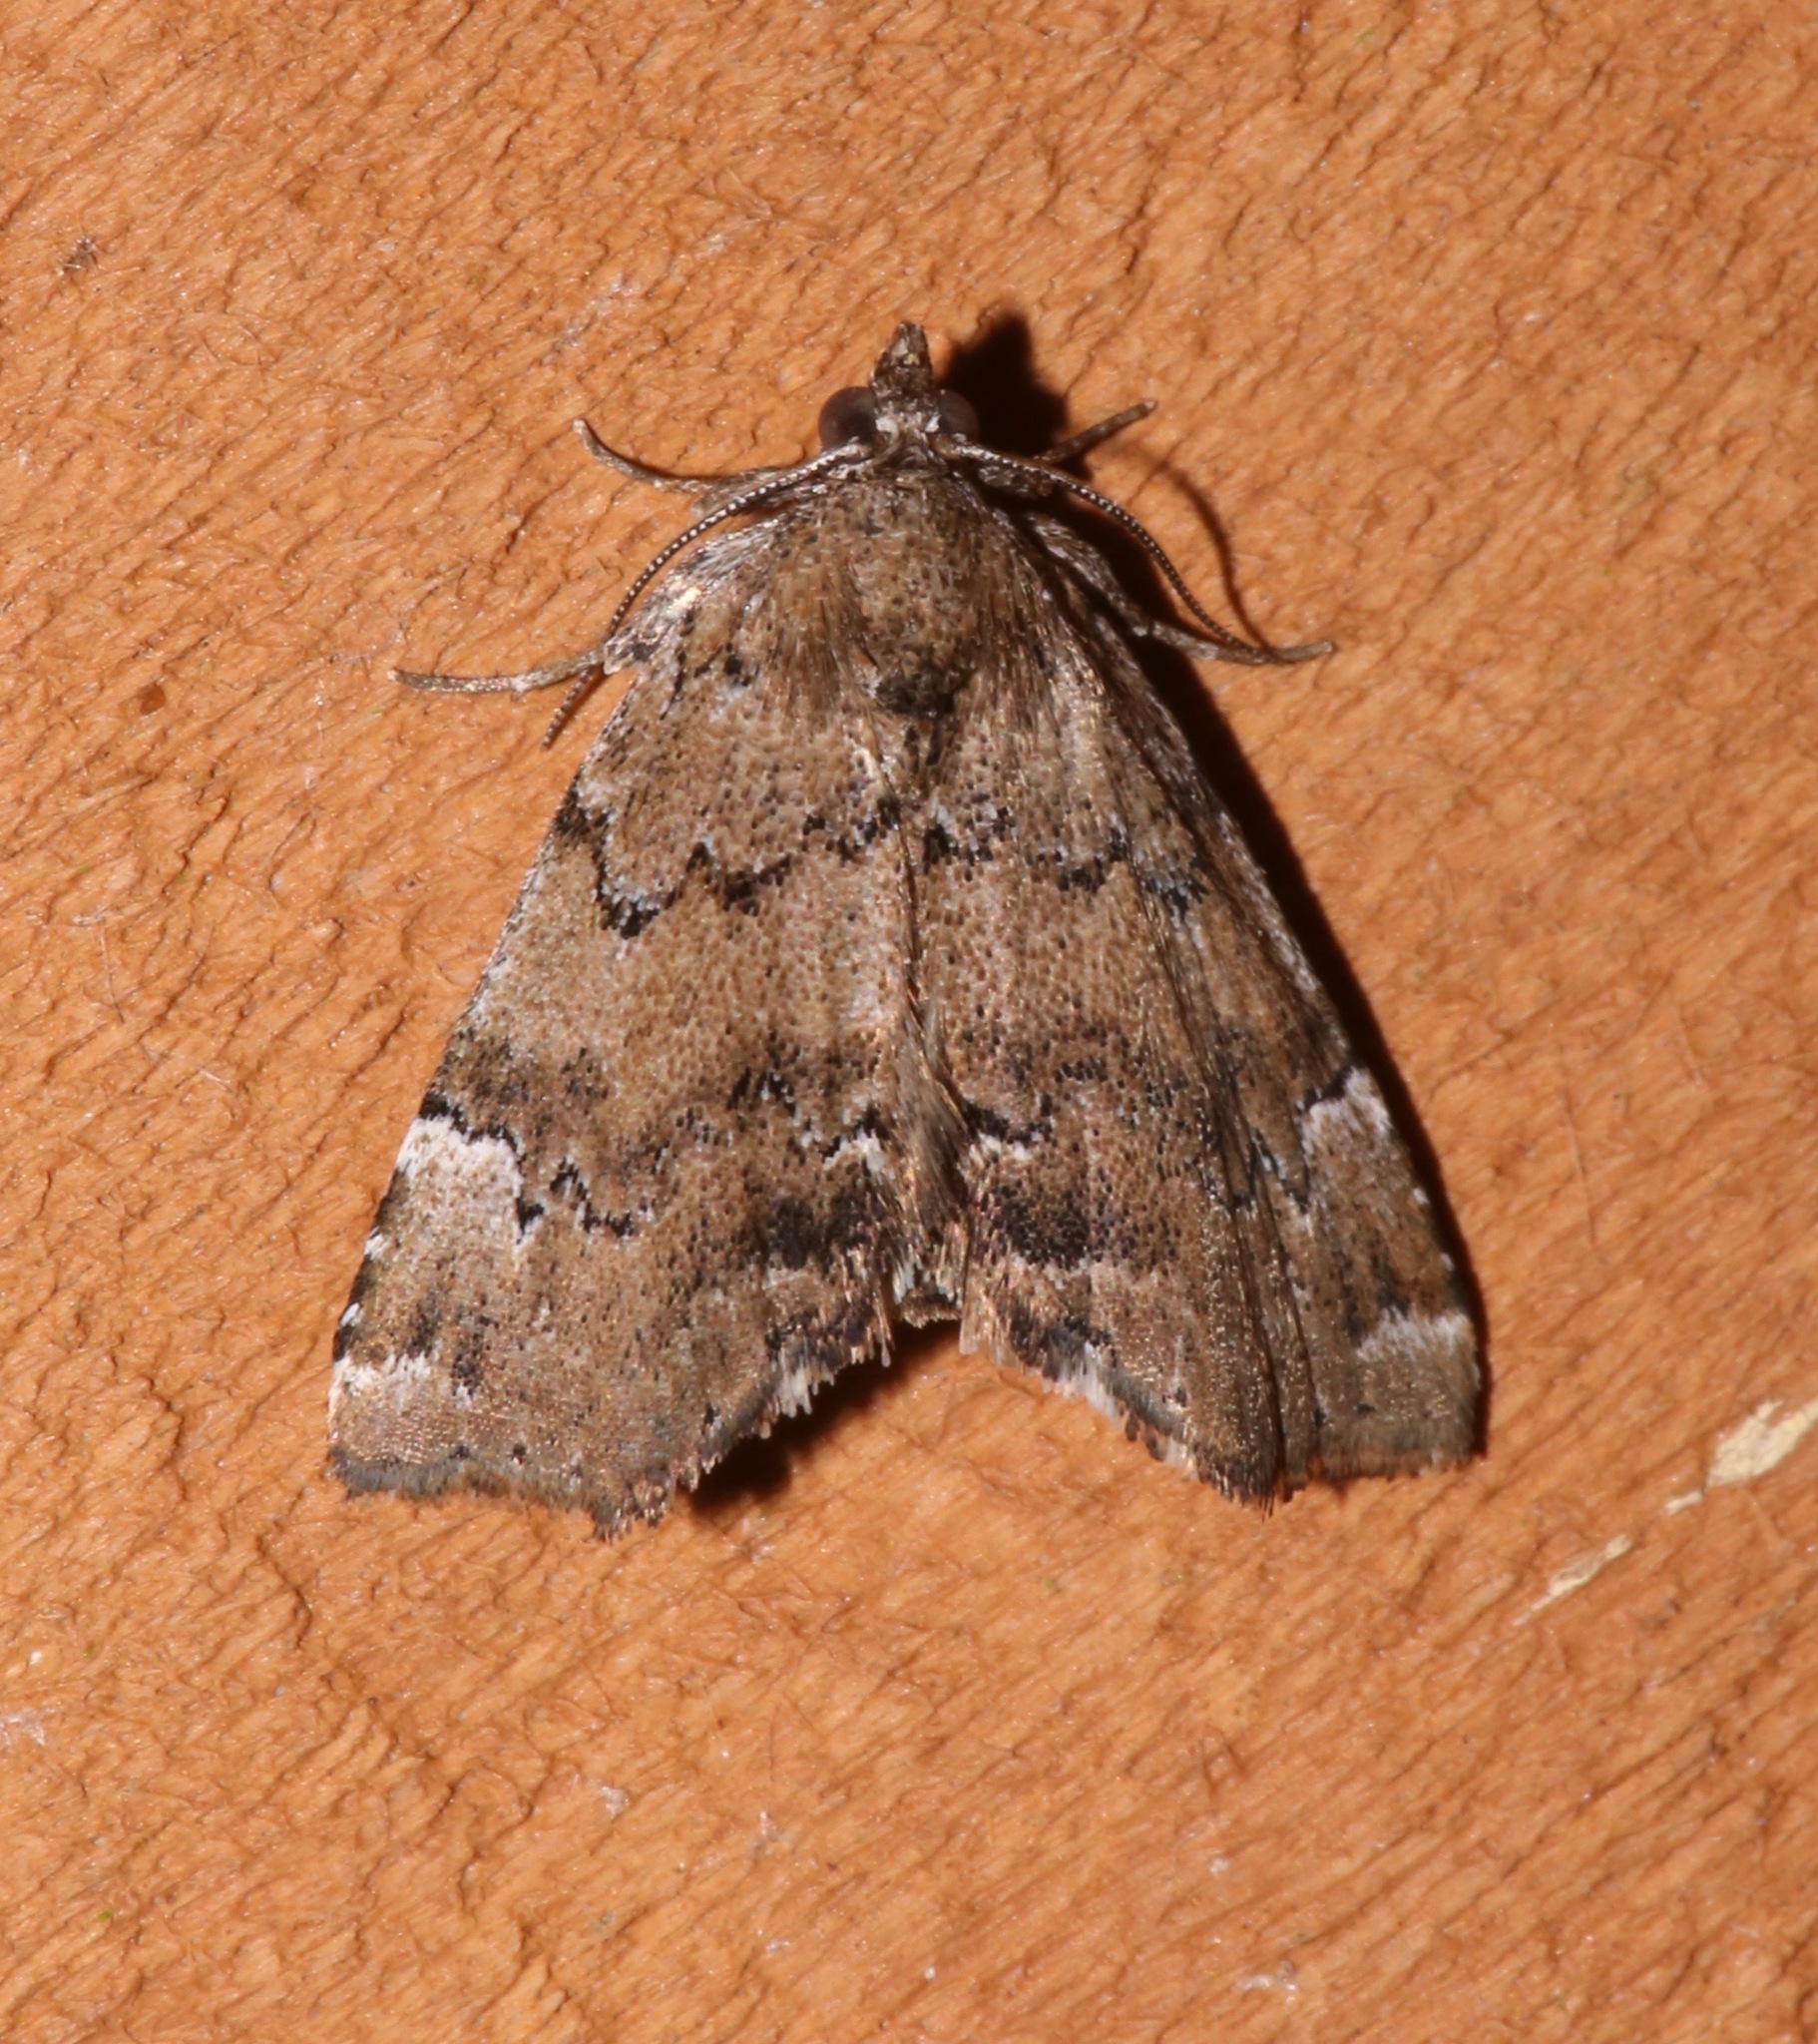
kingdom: Animalia
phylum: Arthropoda
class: Insecta
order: Lepidoptera
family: Erebidae
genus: Cutina
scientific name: Cutina aluticolor
